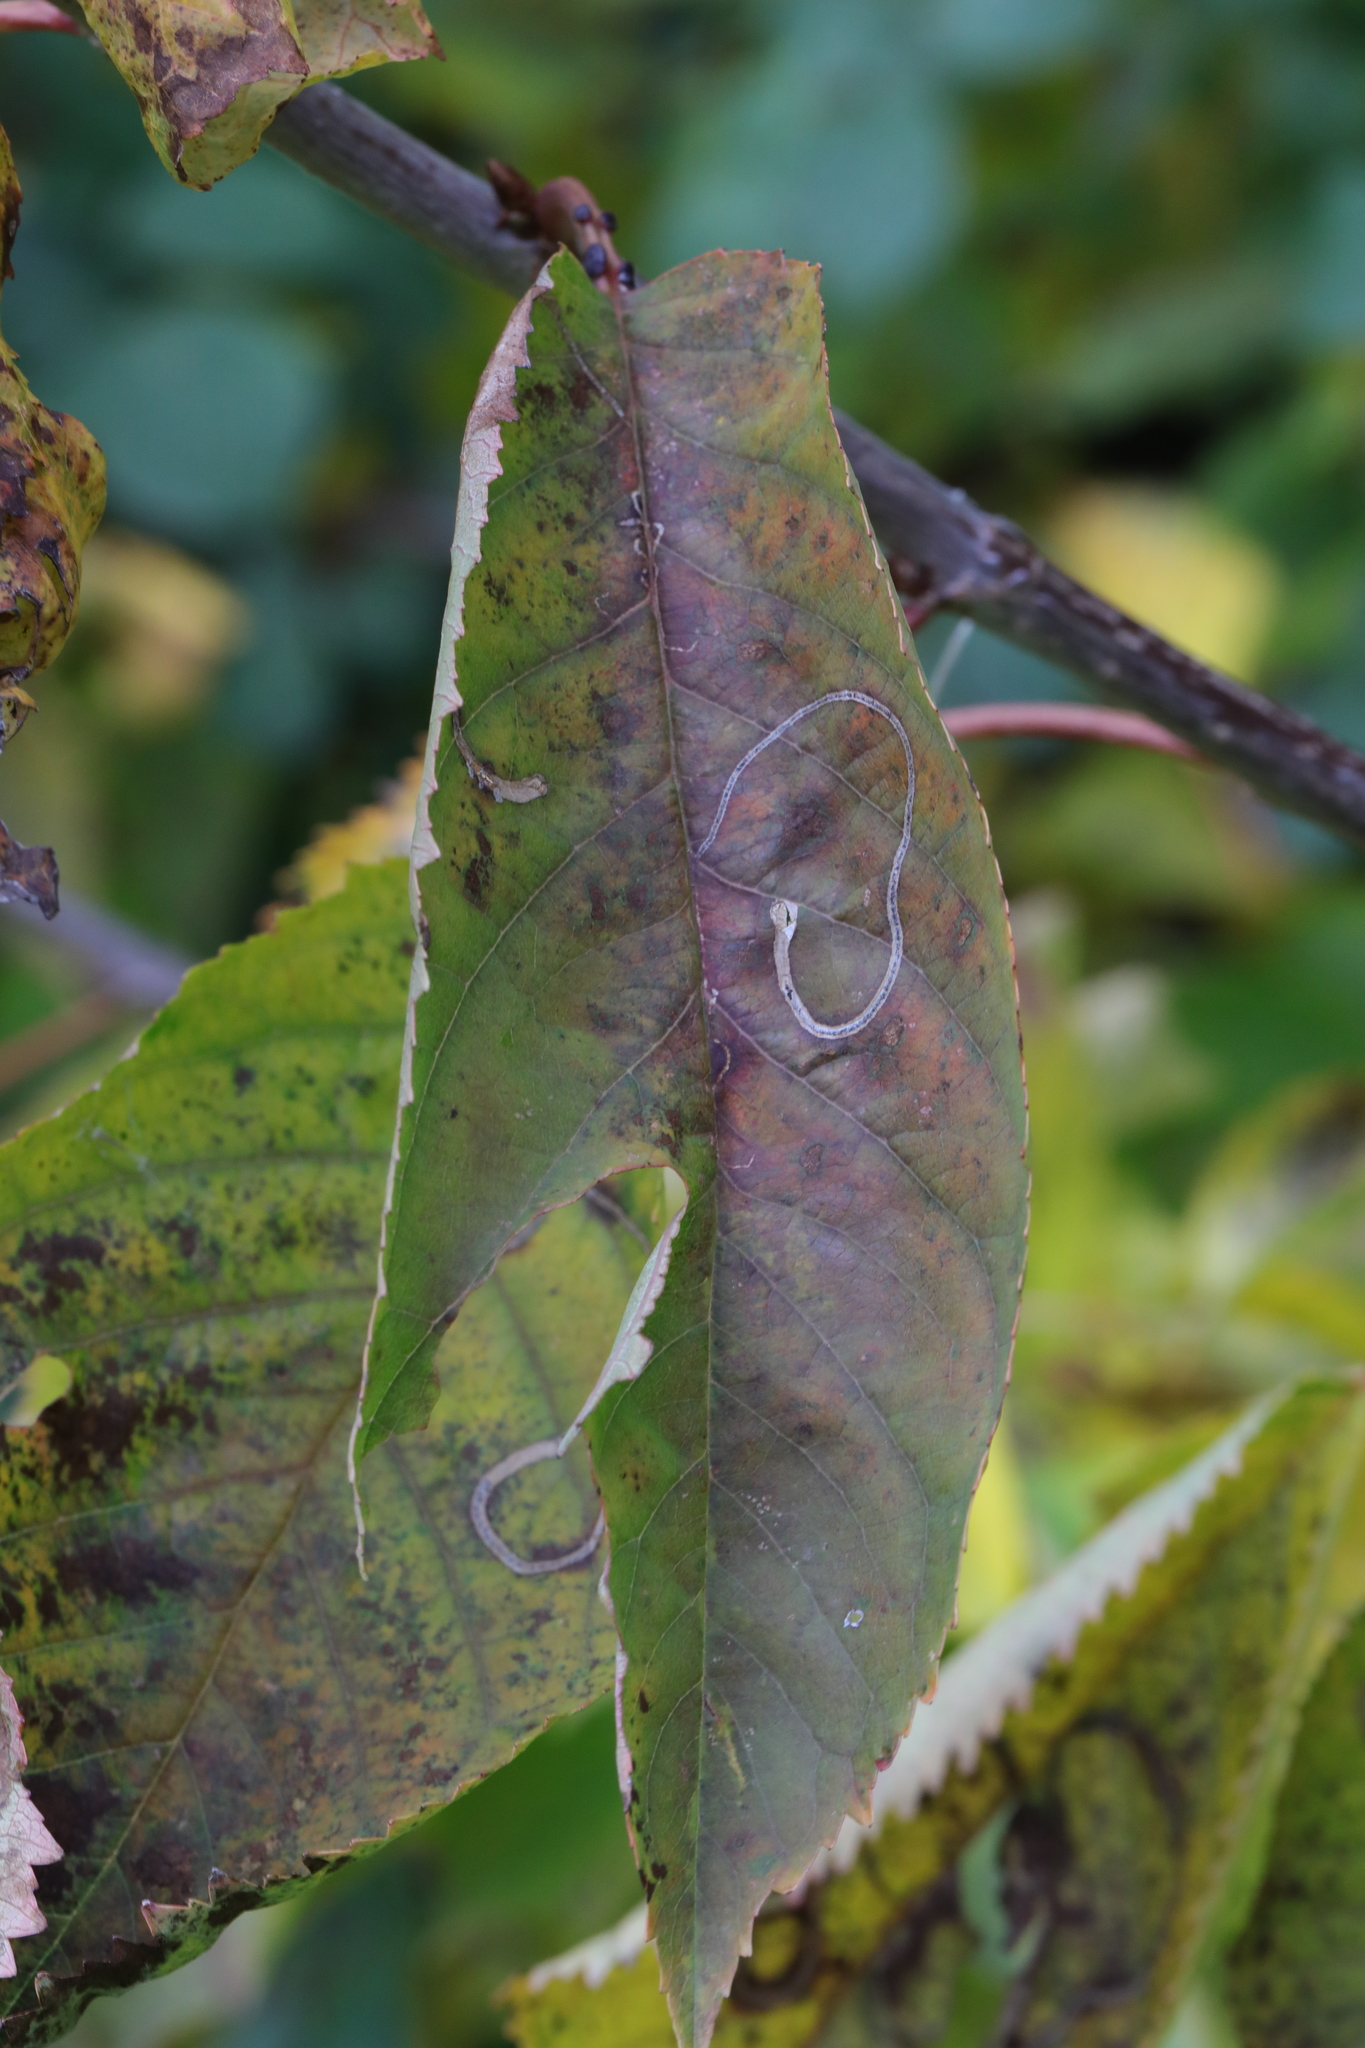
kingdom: Animalia
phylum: Arthropoda
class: Insecta
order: Lepidoptera
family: Lyonetiidae
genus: Lyonetia
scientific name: Lyonetia clerkella
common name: Apple leaf miner
